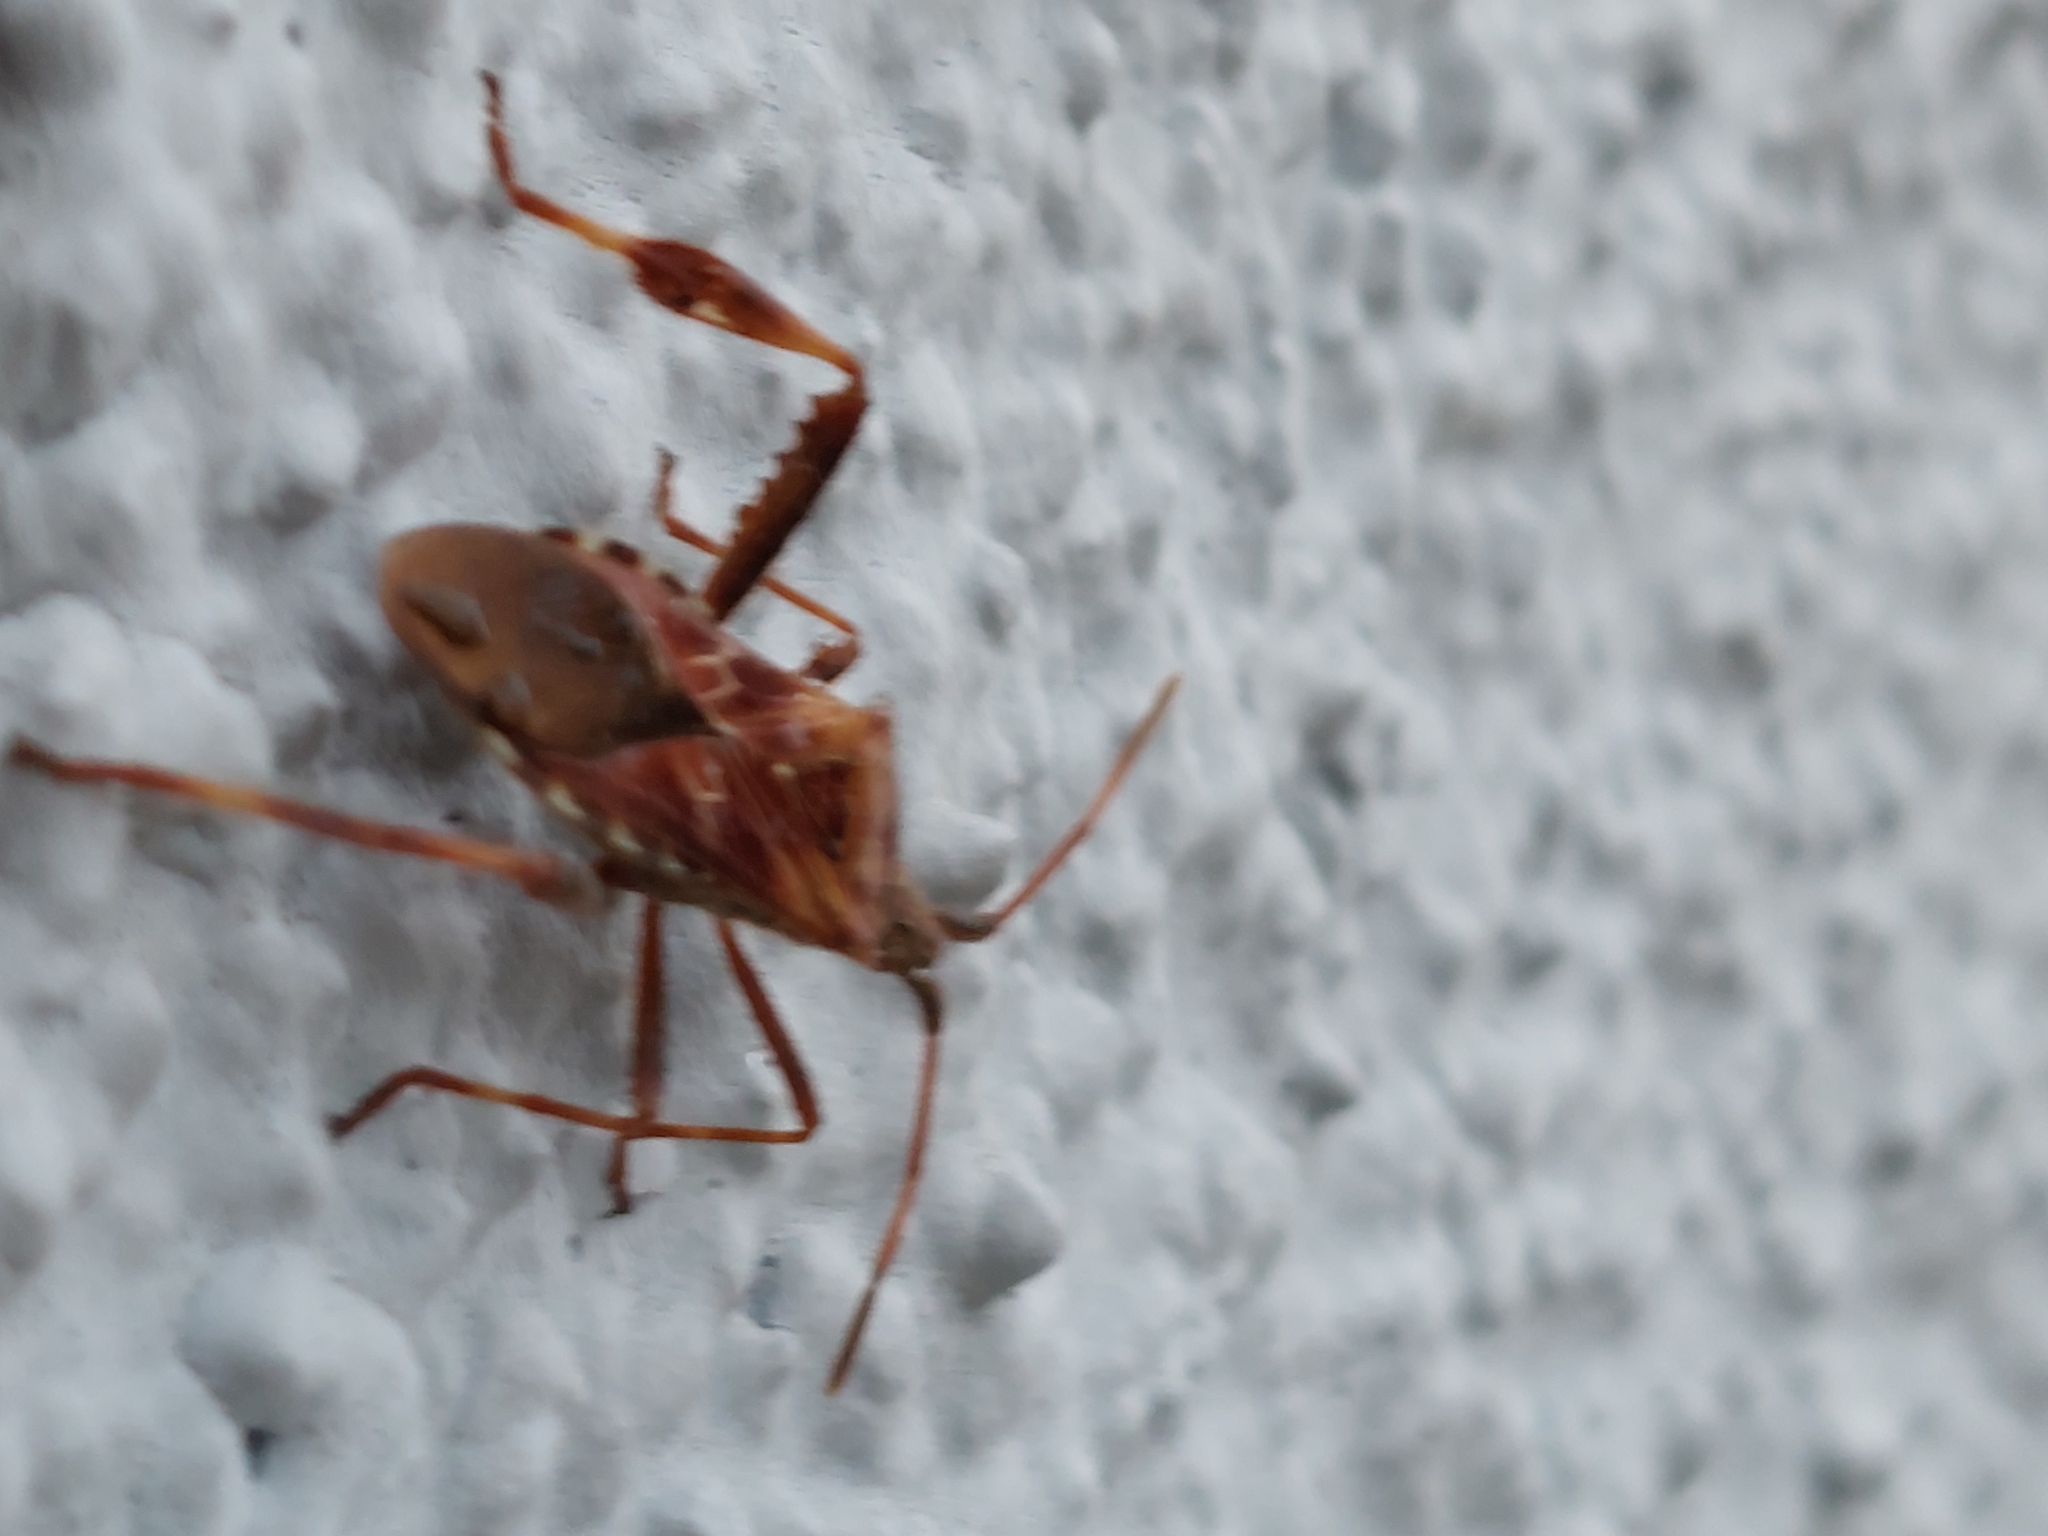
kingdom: Animalia
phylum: Arthropoda
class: Insecta
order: Hemiptera
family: Coreidae
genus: Leptoglossus
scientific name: Leptoglossus occidentalis
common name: Western conifer-seed bug
